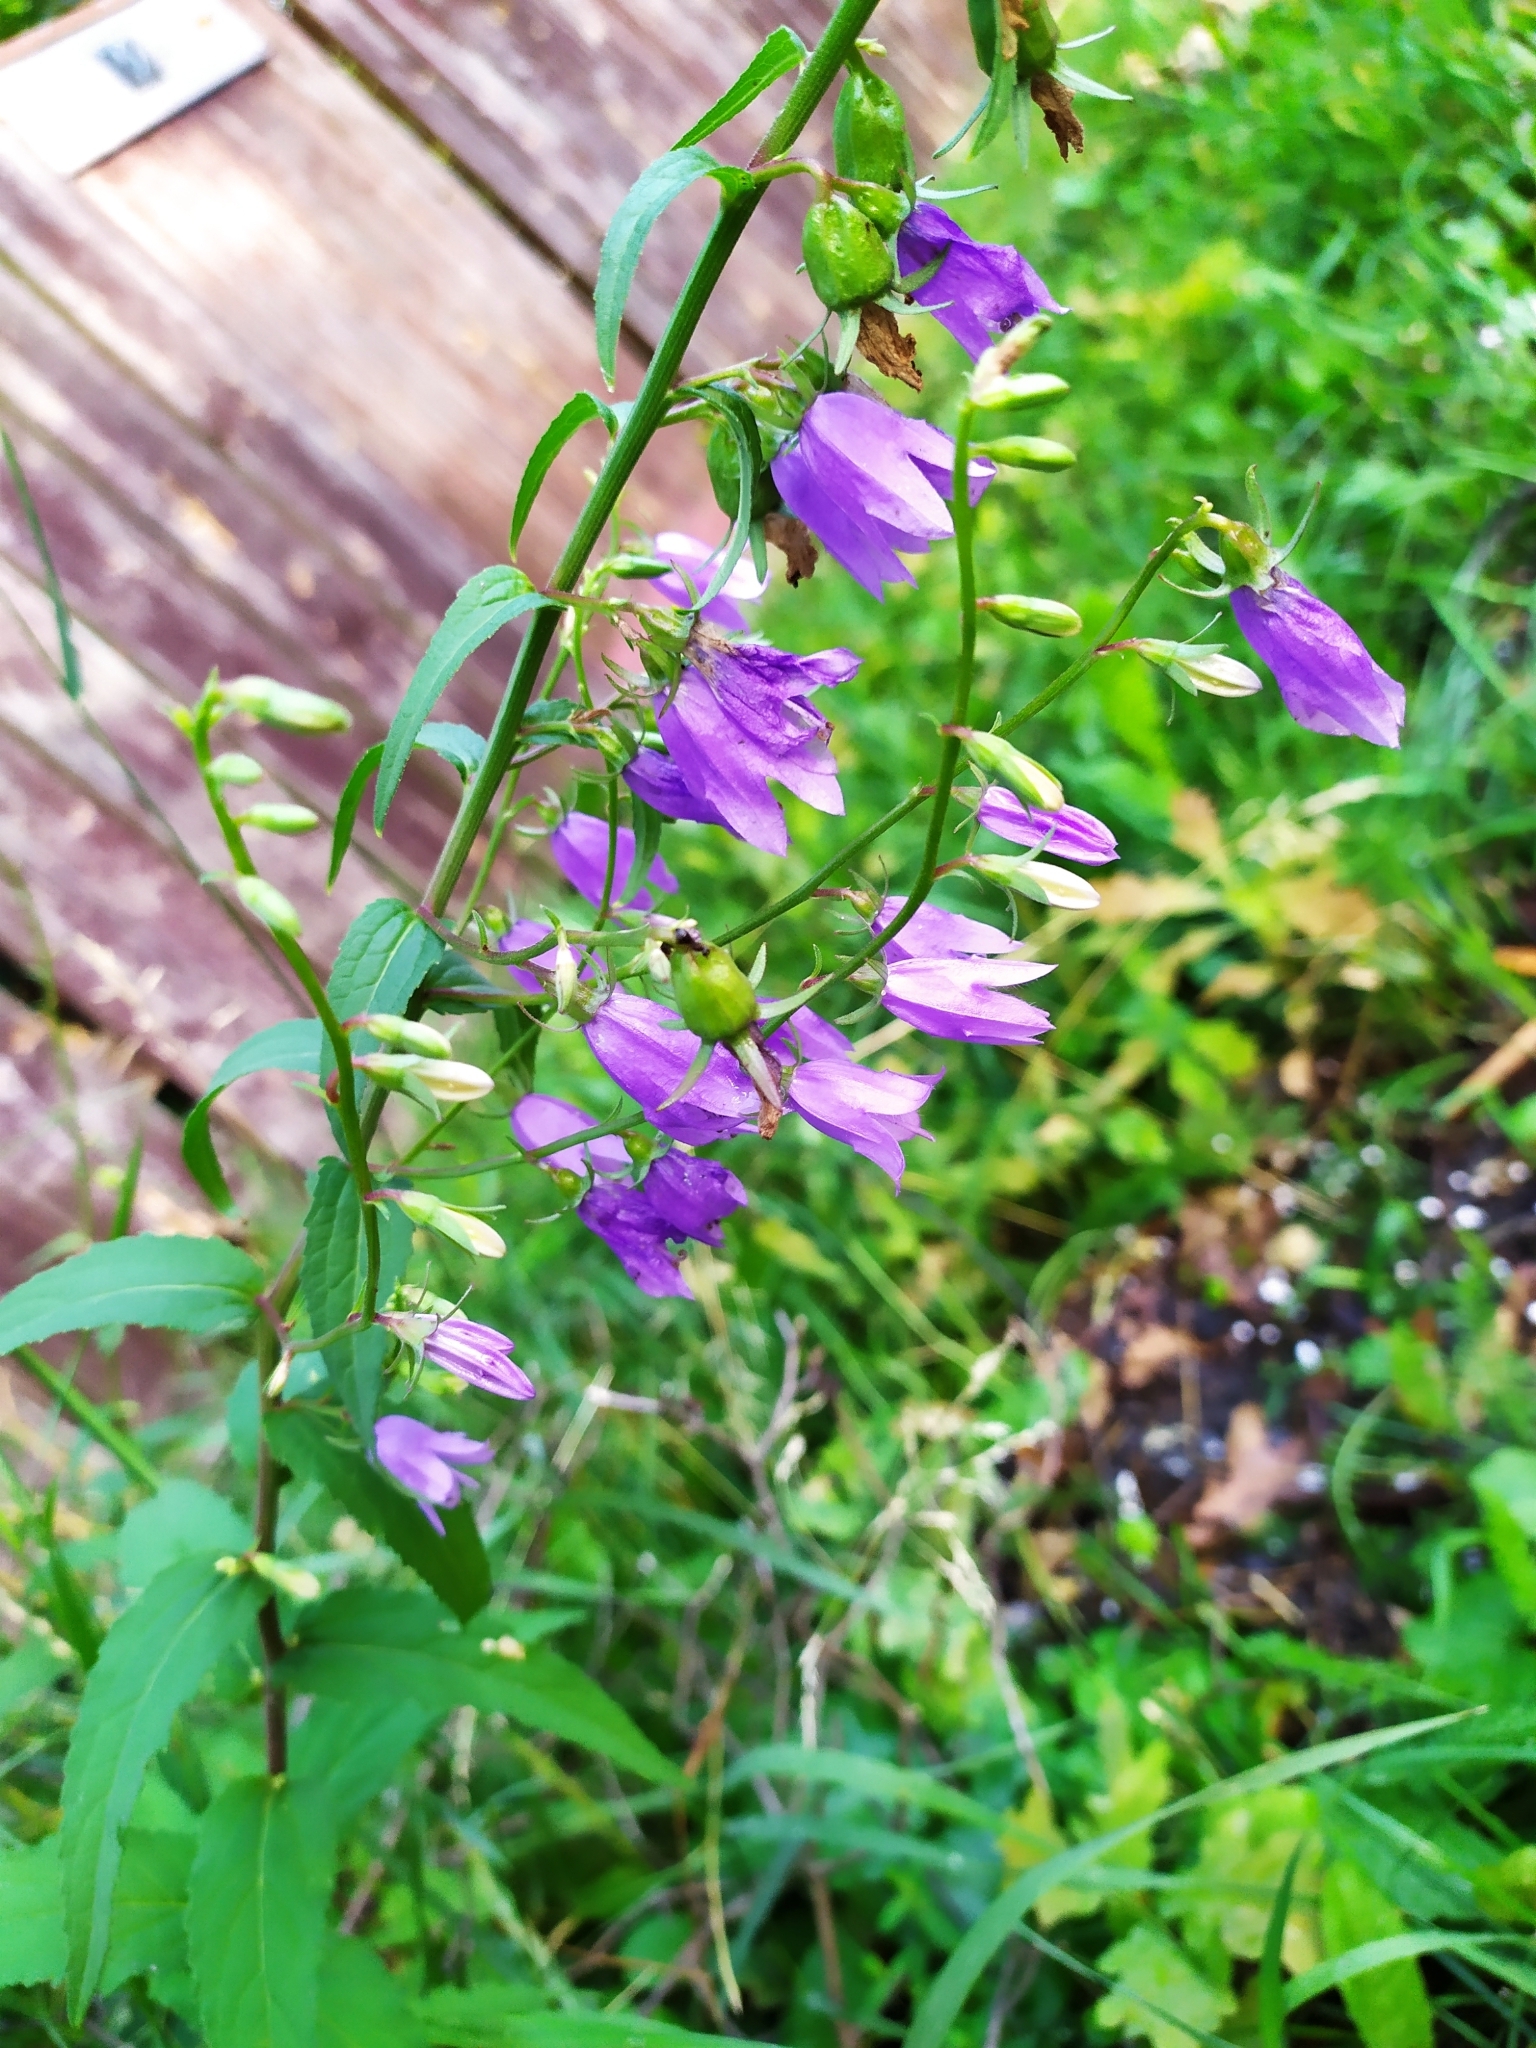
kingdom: Plantae
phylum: Tracheophyta
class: Magnoliopsida
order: Asterales
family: Campanulaceae
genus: Campanula
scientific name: Campanula rapunculoides
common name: Creeping bellflower
